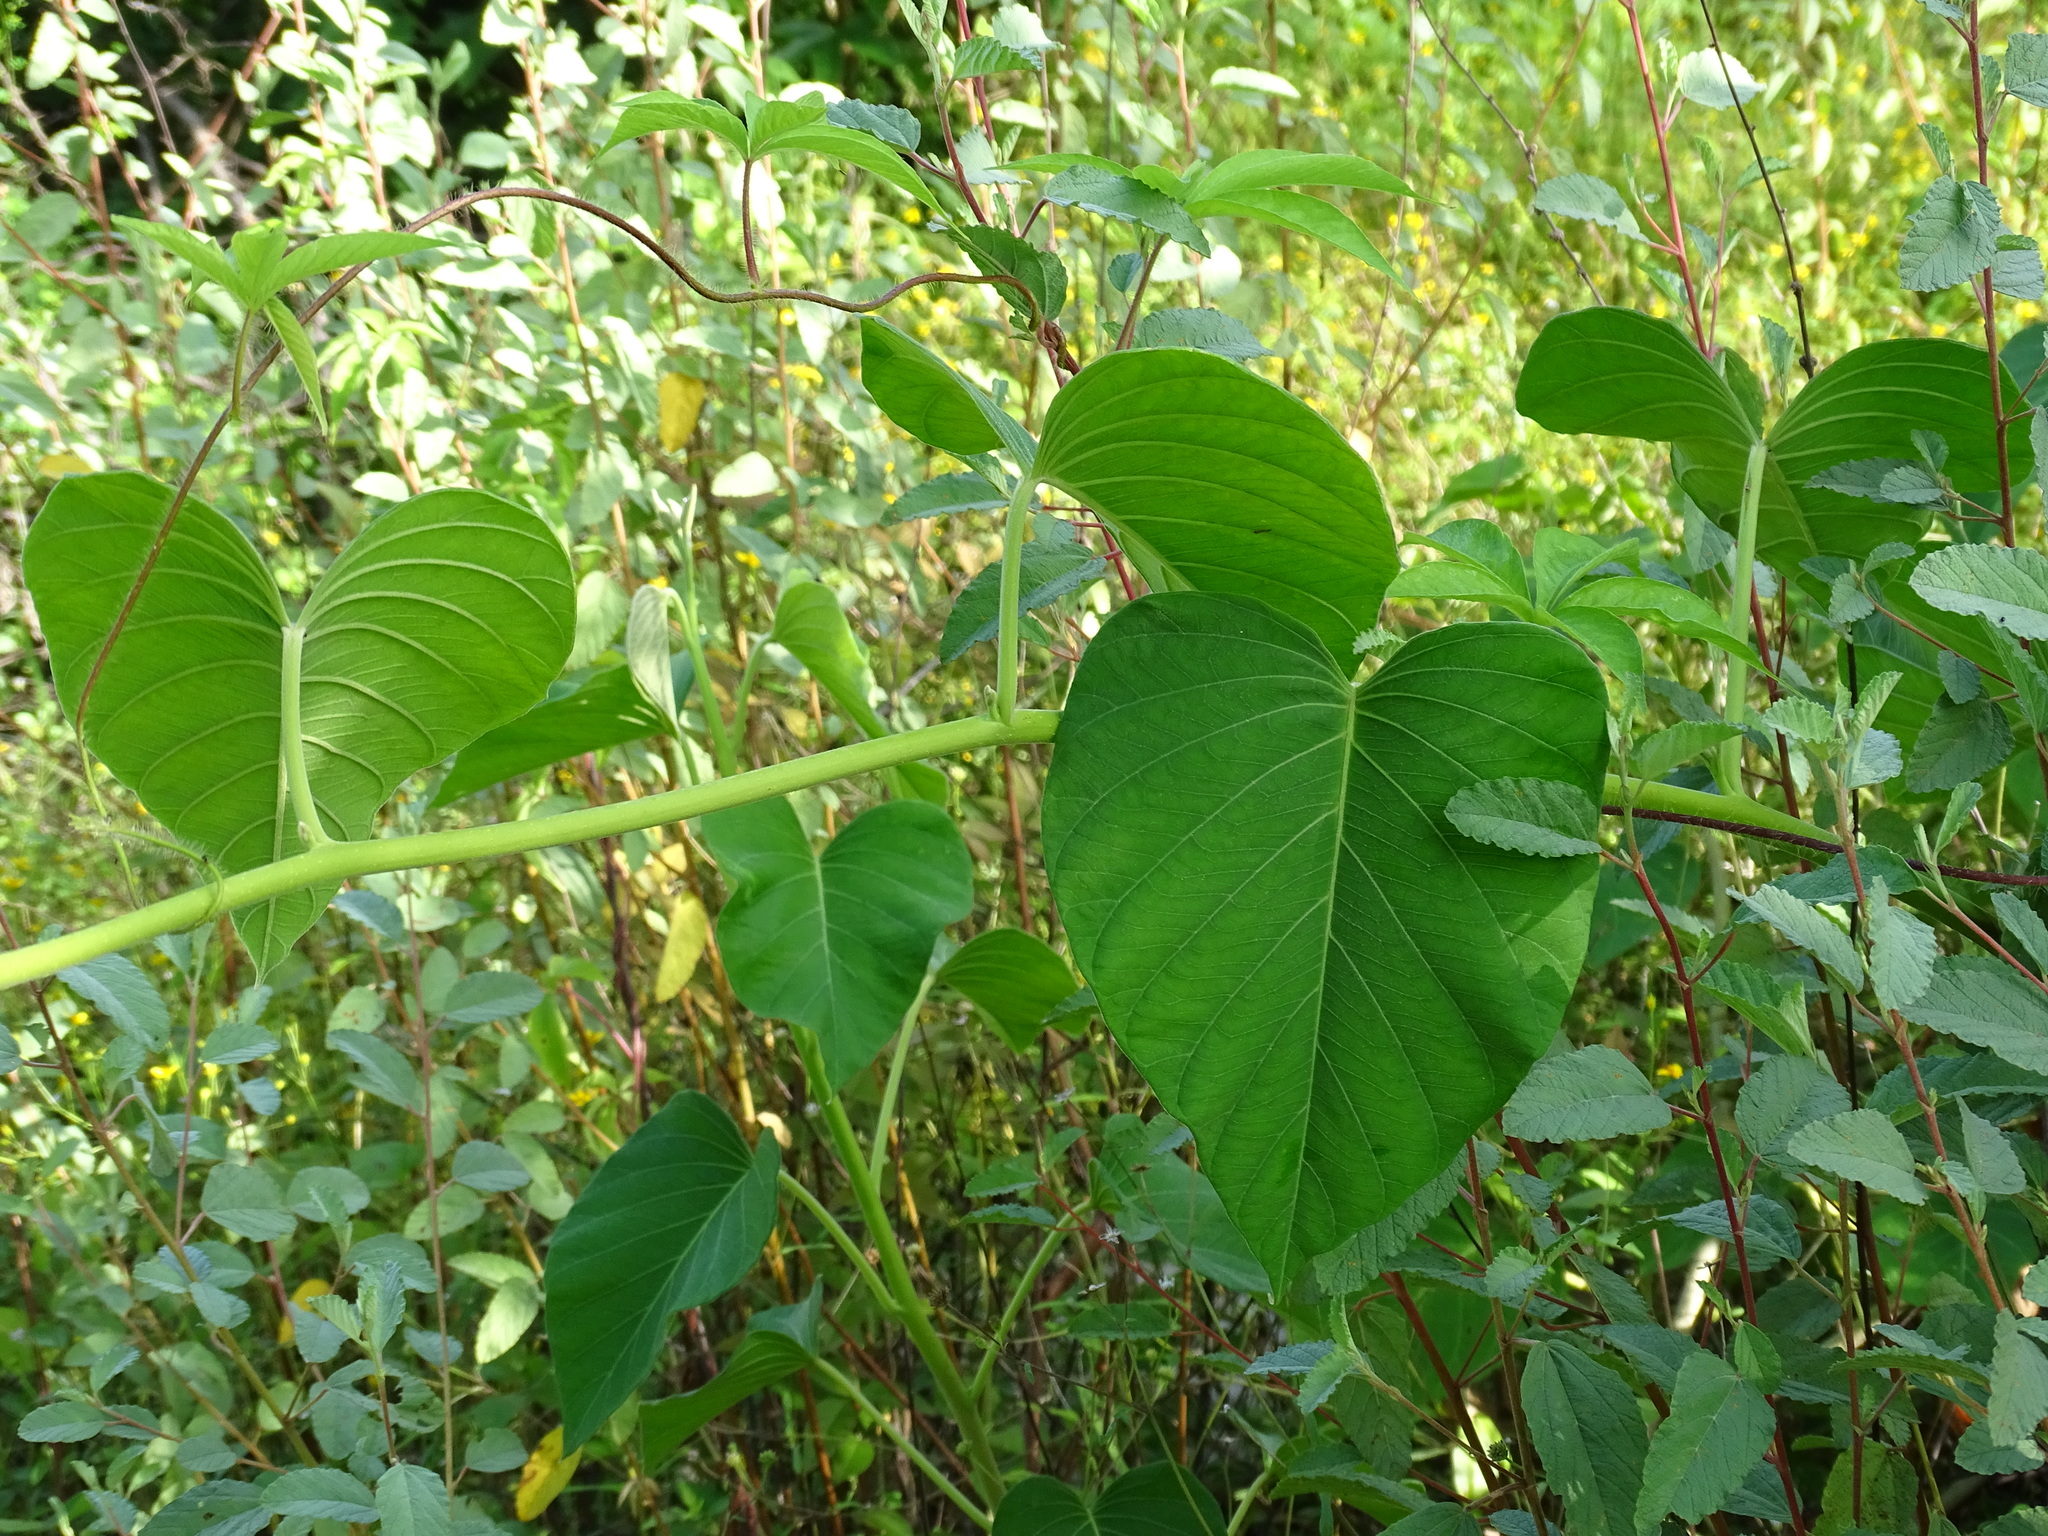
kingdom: Plantae
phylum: Tracheophyta
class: Magnoliopsida
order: Solanales
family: Convolvulaceae
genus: Ipomoea
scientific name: Ipomoea carnea
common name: Morning-glory
